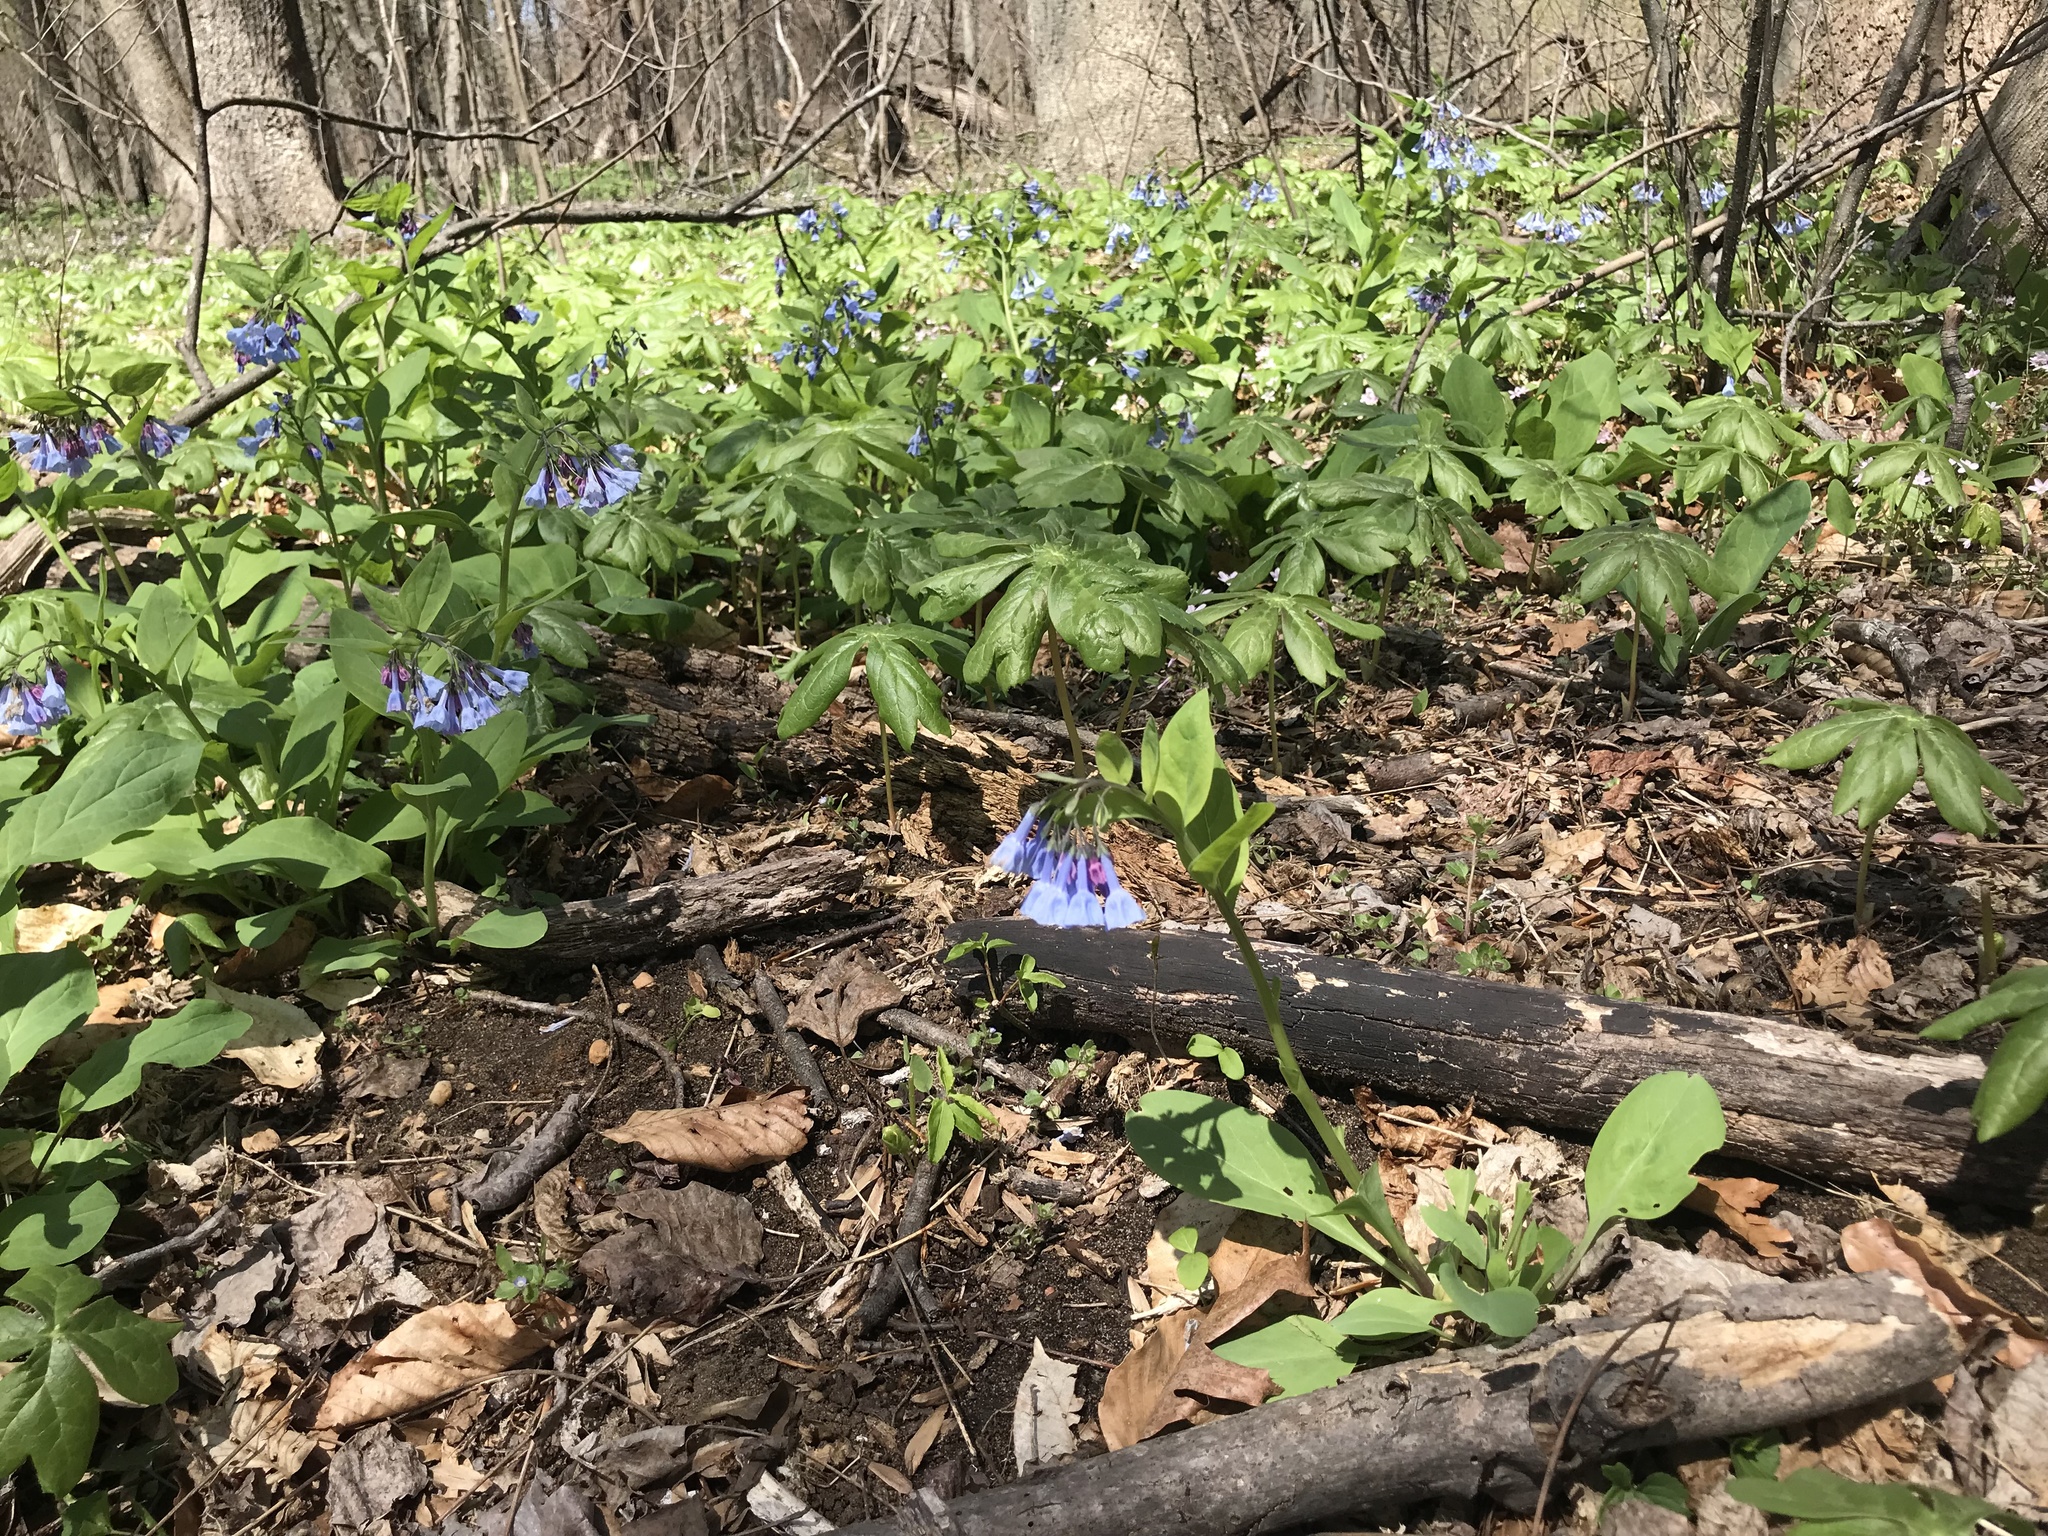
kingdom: Plantae
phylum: Tracheophyta
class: Magnoliopsida
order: Boraginales
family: Boraginaceae
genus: Mertensia
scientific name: Mertensia virginica
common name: Virginia bluebells
